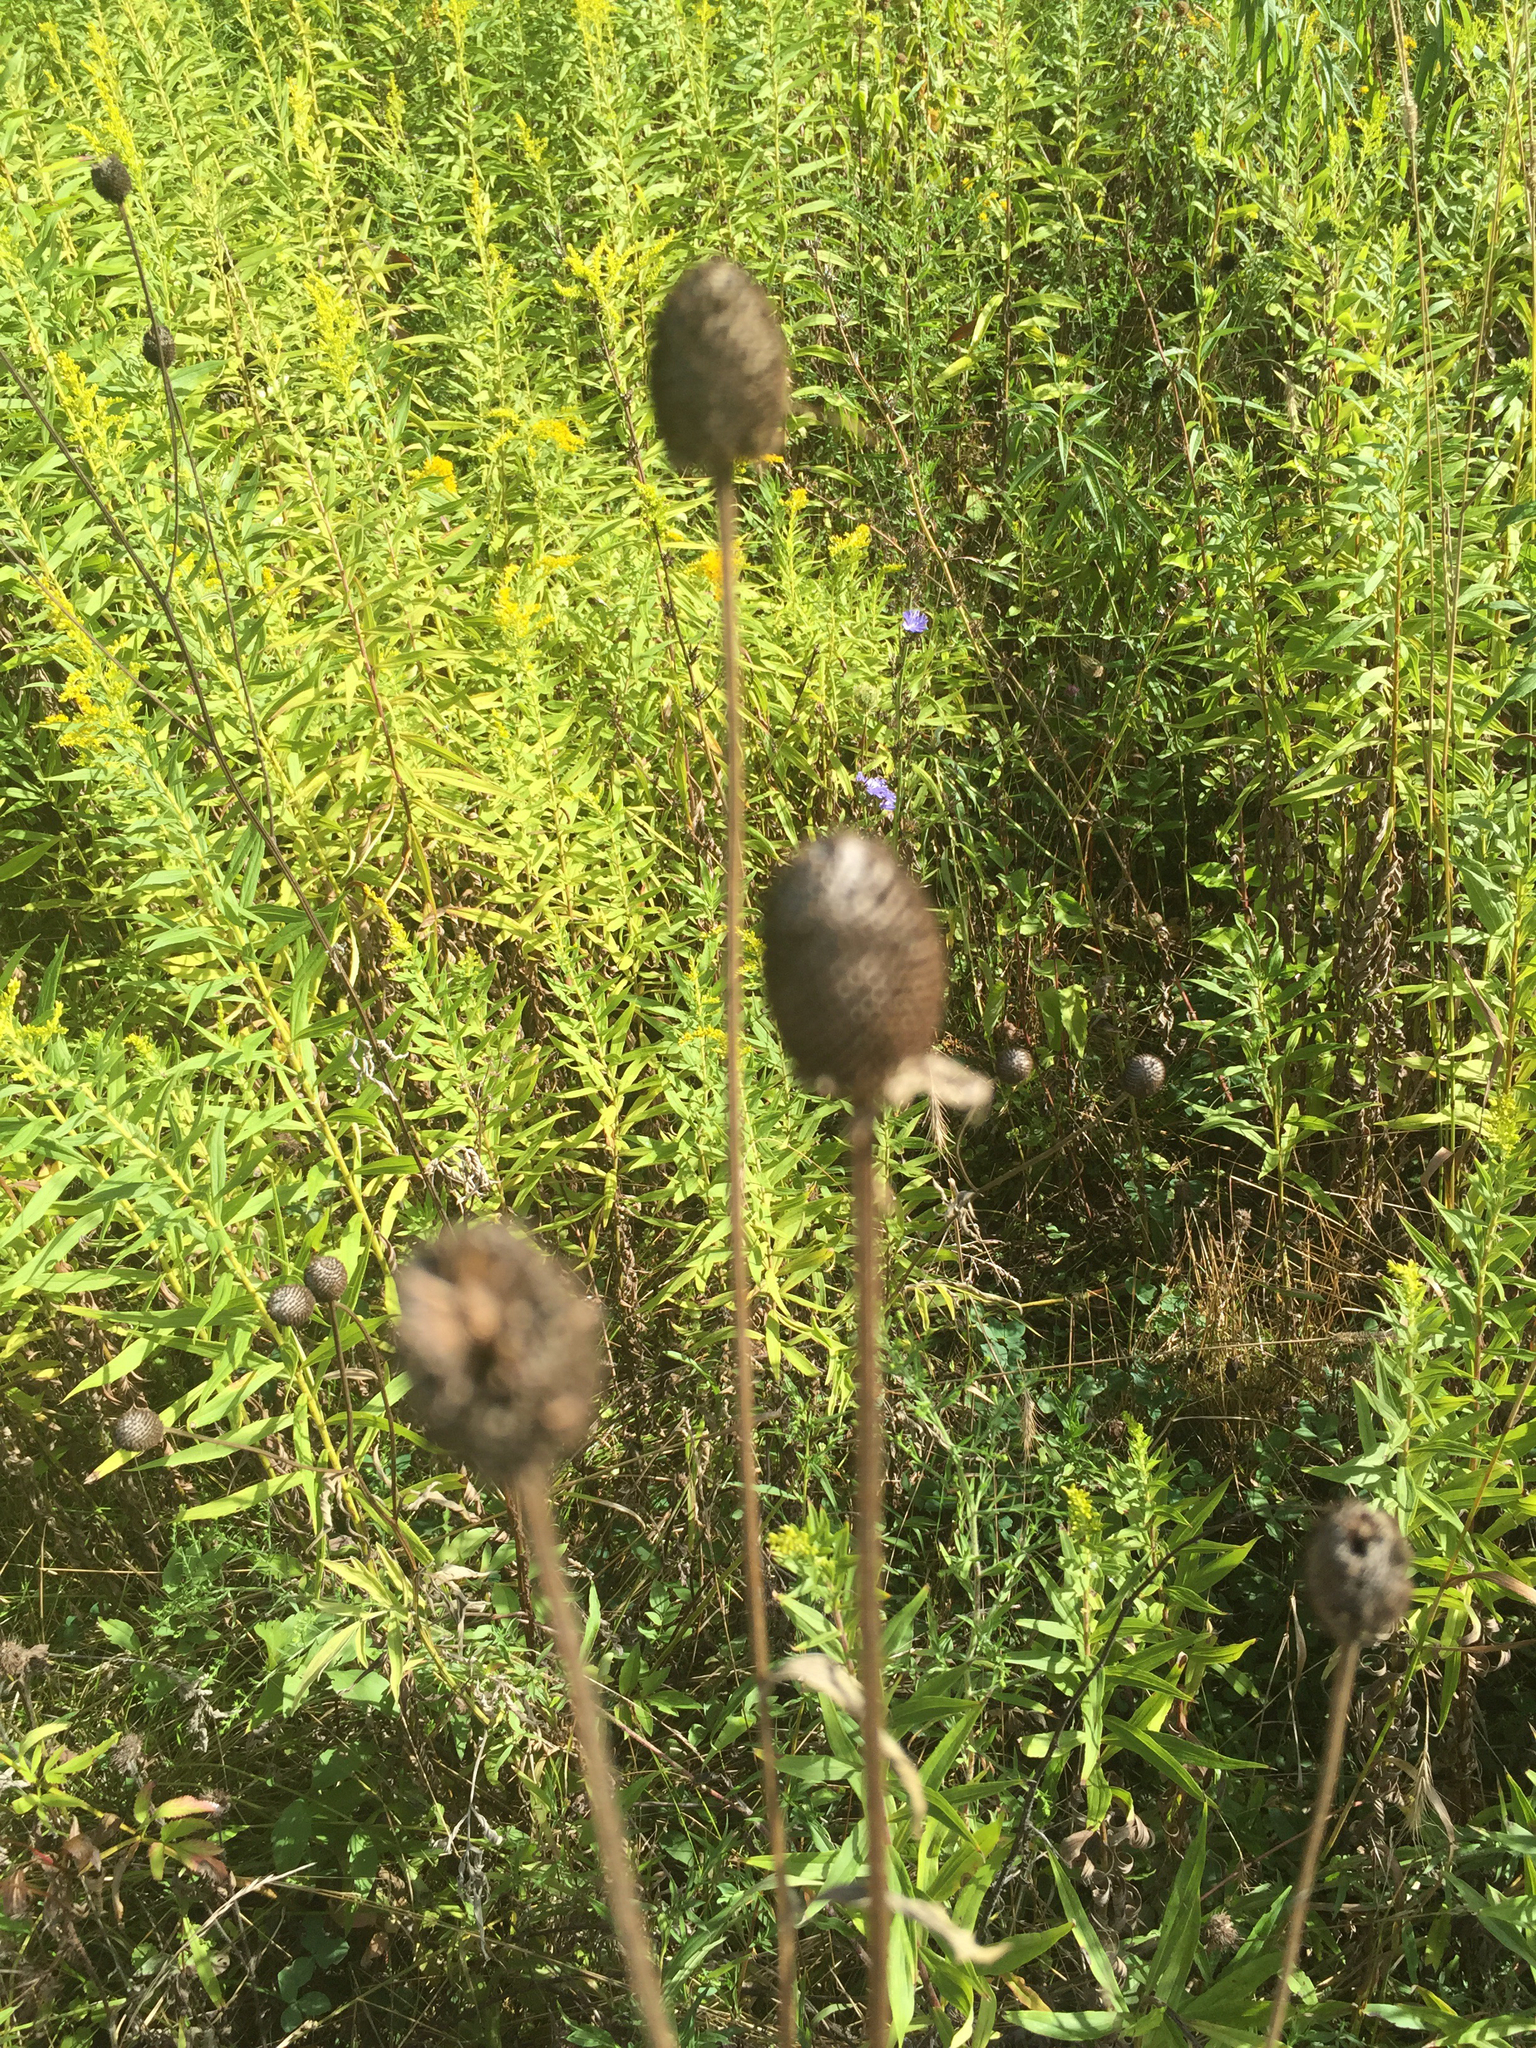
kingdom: Plantae
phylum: Tracheophyta
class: Magnoliopsida
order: Asterales
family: Asteraceae
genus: Ratibida
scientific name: Ratibida pinnata
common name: Drooping prairie-coneflower
